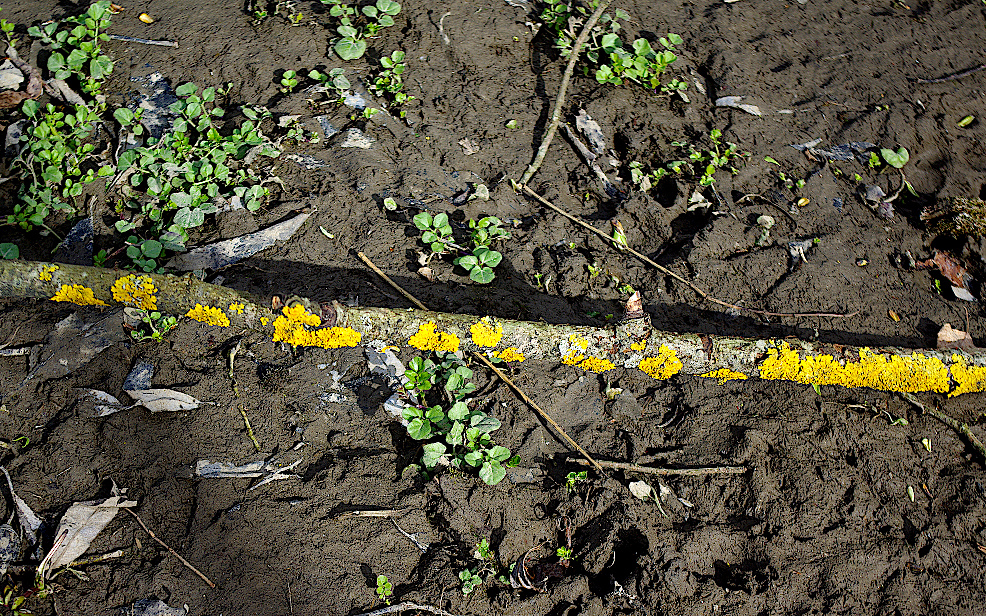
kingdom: Plantae
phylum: Tracheophyta
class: Magnoliopsida
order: Brassicales
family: Brassicaceae
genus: Cardamine
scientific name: Cardamine amara
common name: Large bitter-cress
